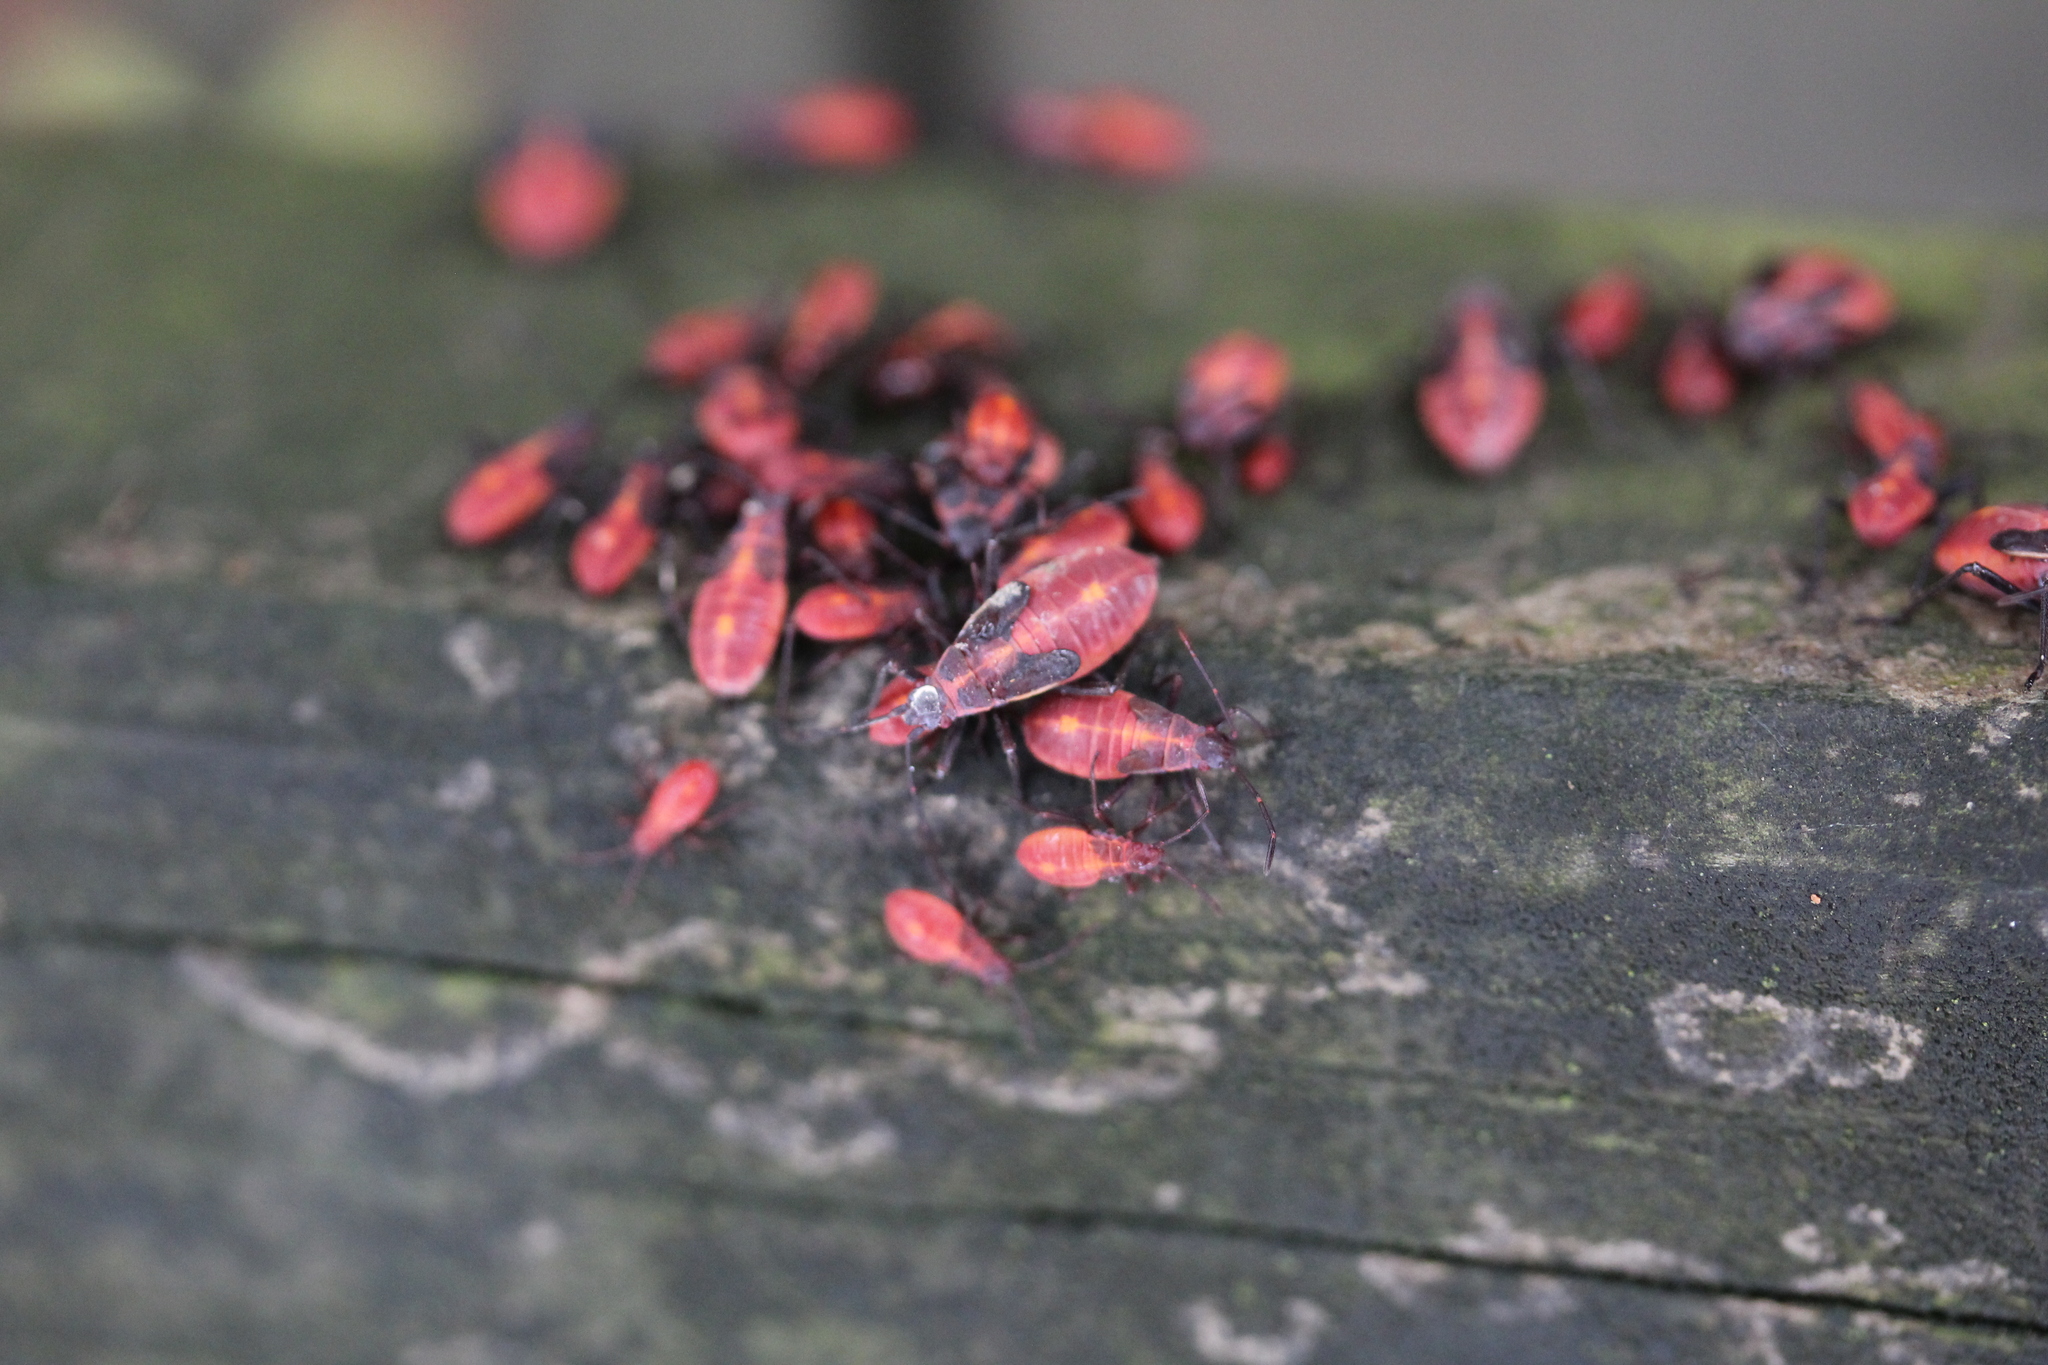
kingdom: Animalia
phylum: Arthropoda
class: Insecta
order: Hemiptera
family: Rhopalidae
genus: Boisea
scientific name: Boisea trivittata
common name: Boxelder bug
